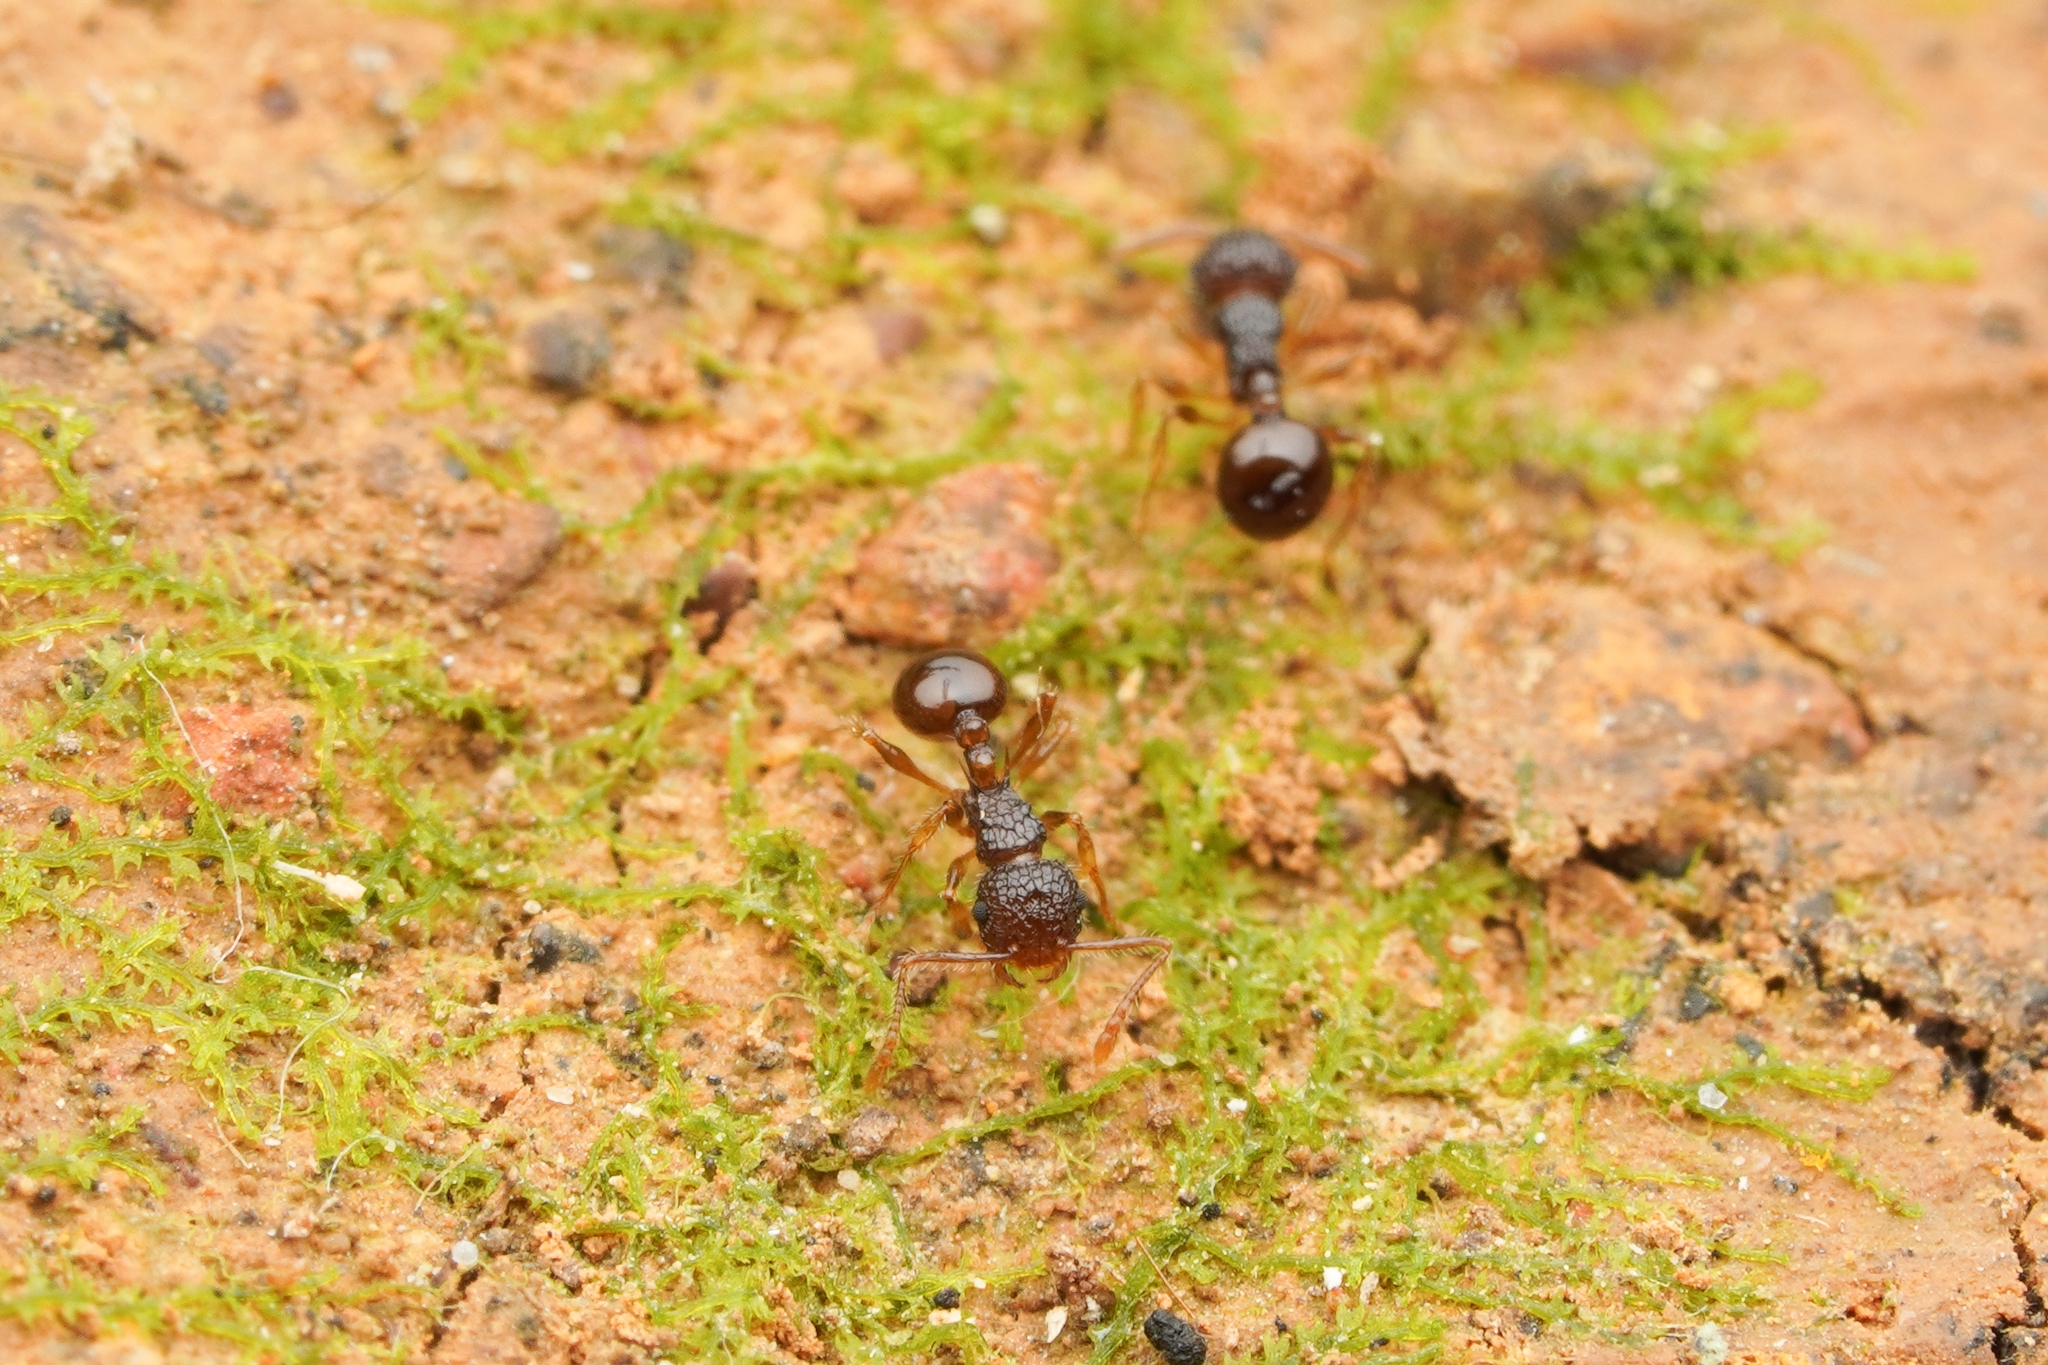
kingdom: Animalia
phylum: Arthropoda
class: Insecta
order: Hymenoptera
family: Formicidae
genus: Pristomyrmex
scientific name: Pristomyrmex punctatus
